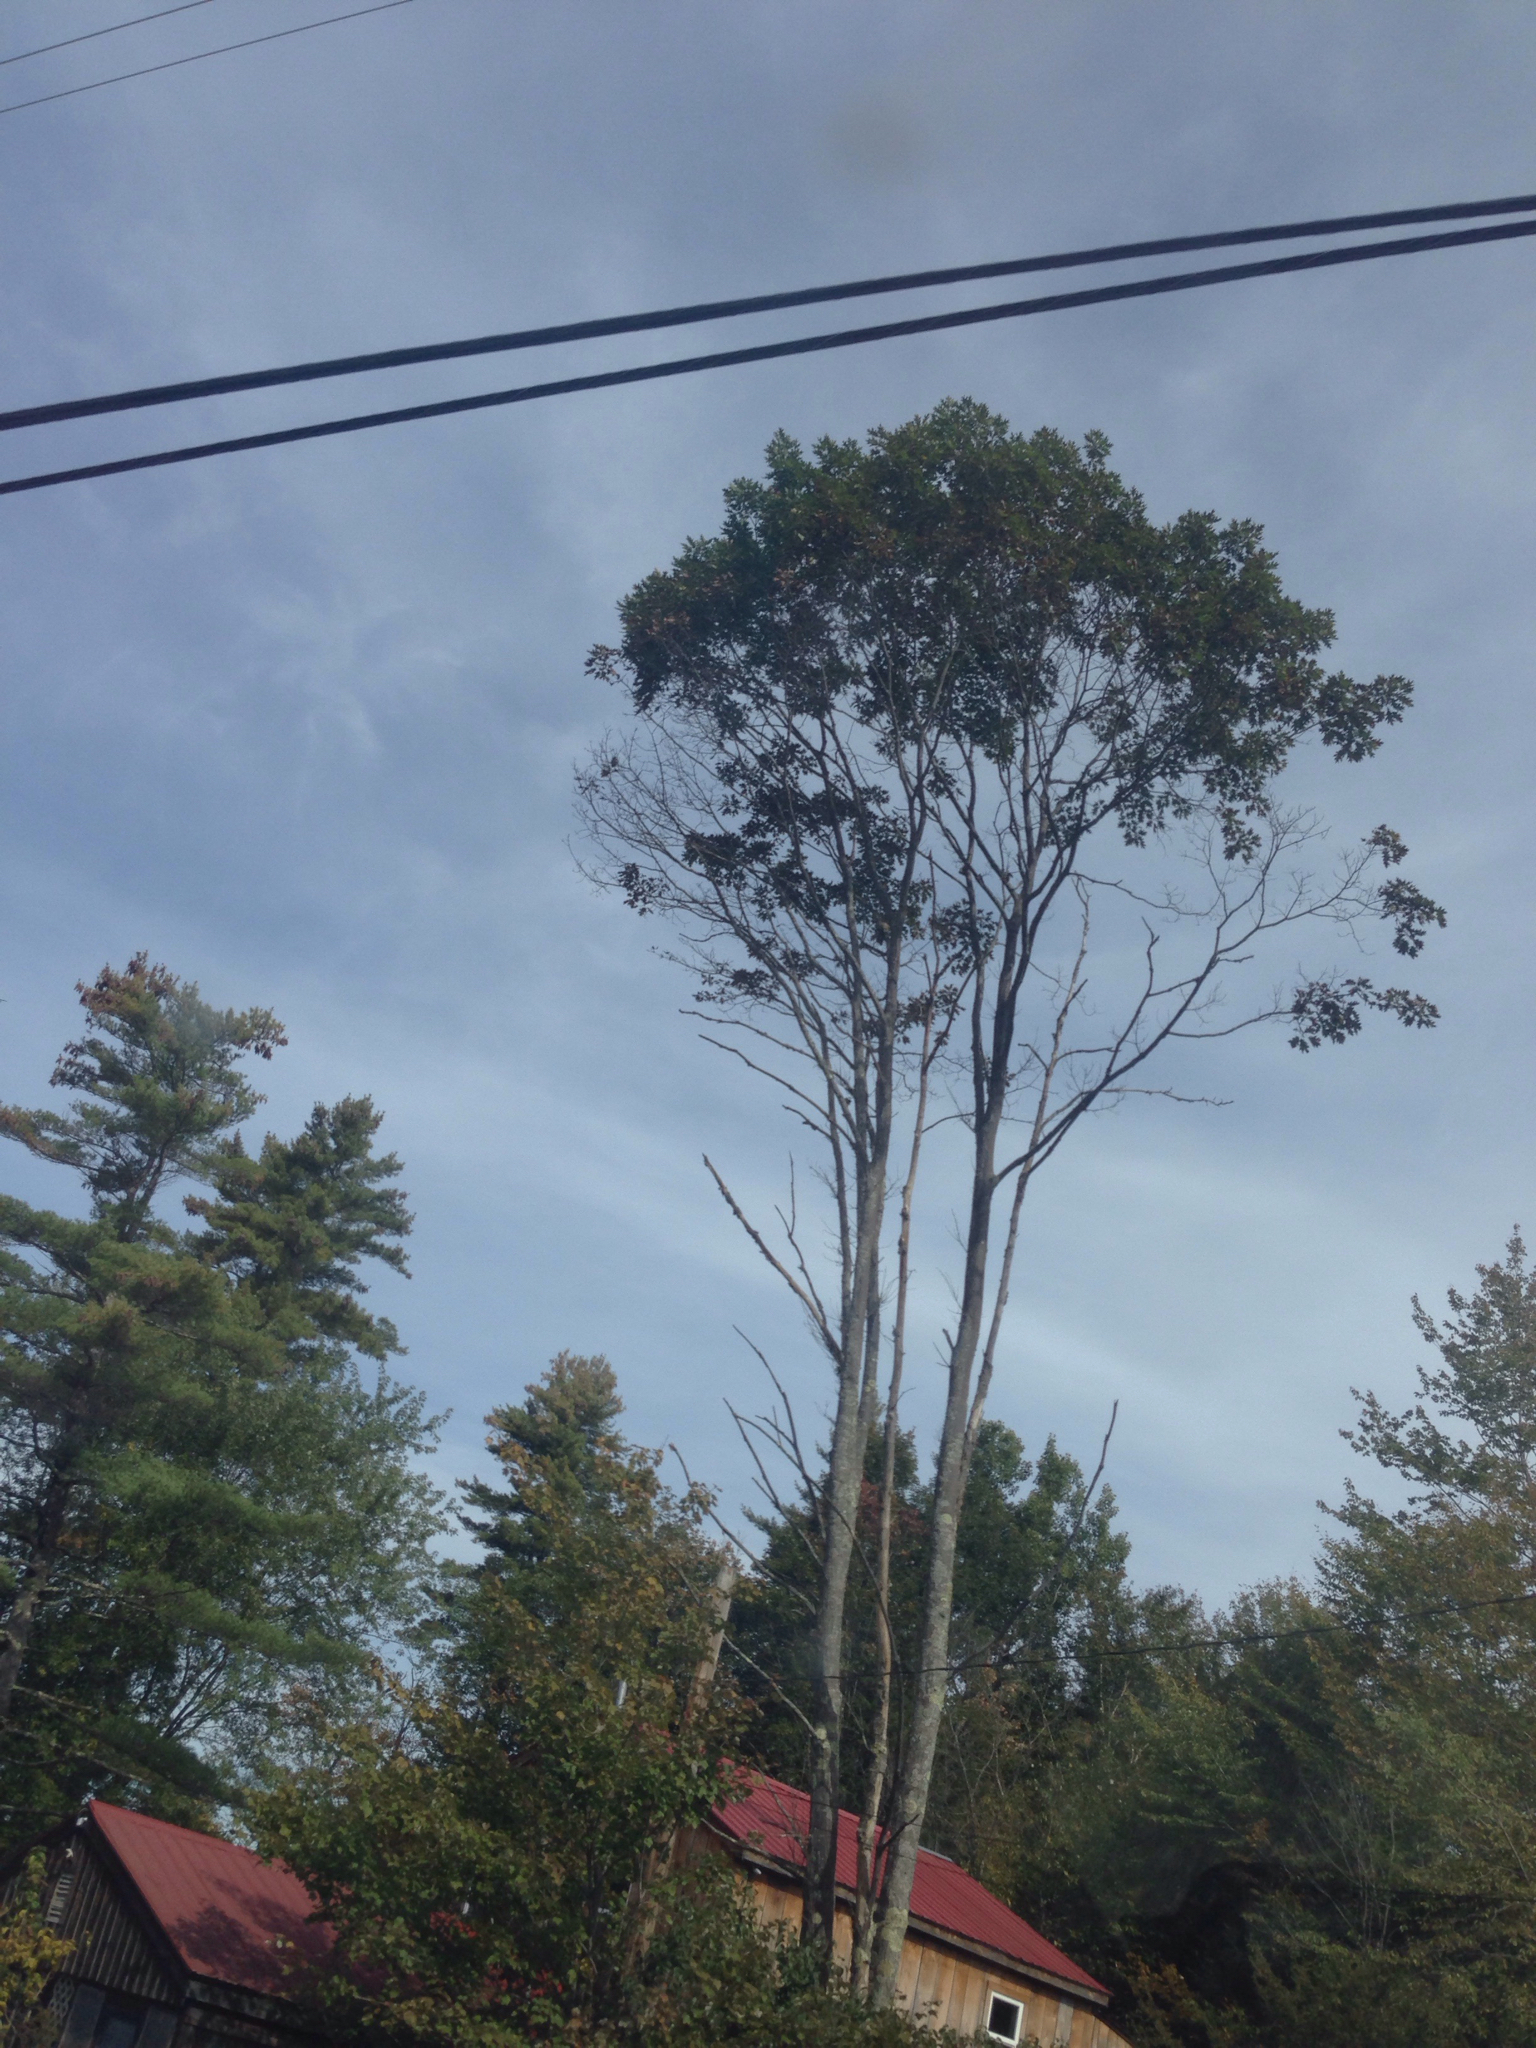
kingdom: Plantae
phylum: Tracheophyta
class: Magnoliopsida
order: Fagales
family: Fagaceae
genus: Quercus
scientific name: Quercus rubra
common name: Red oak
